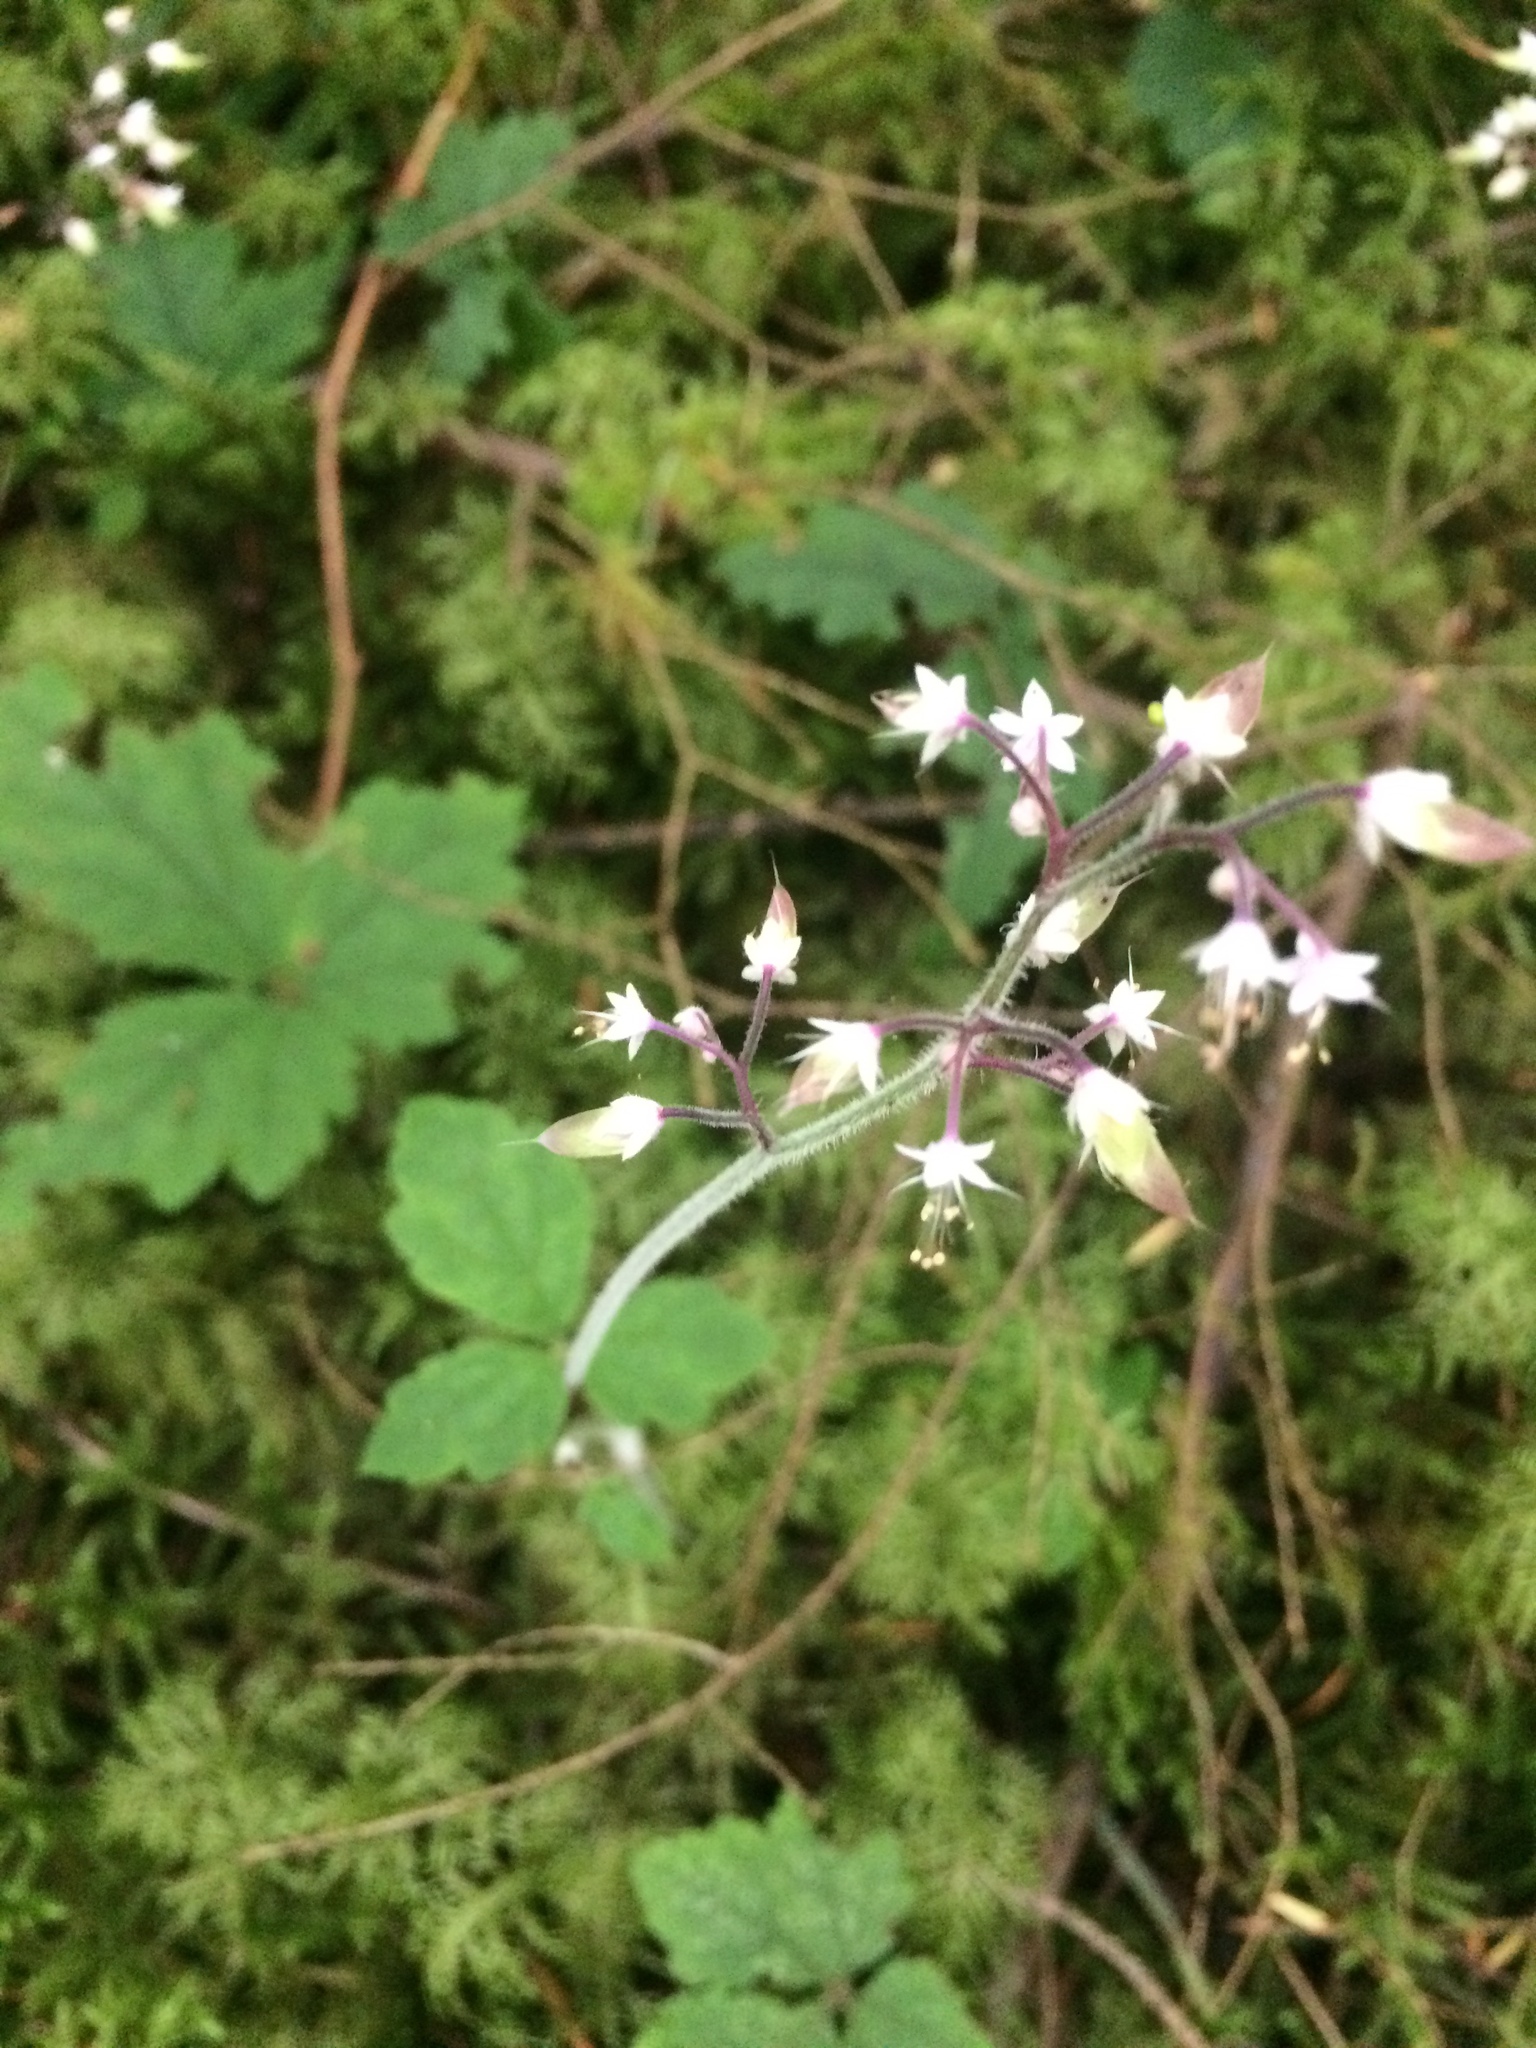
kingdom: Plantae
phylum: Tracheophyta
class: Magnoliopsida
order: Saxifragales
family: Saxifragaceae
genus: Tiarella
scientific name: Tiarella trifoliata
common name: Sugar-scoop
